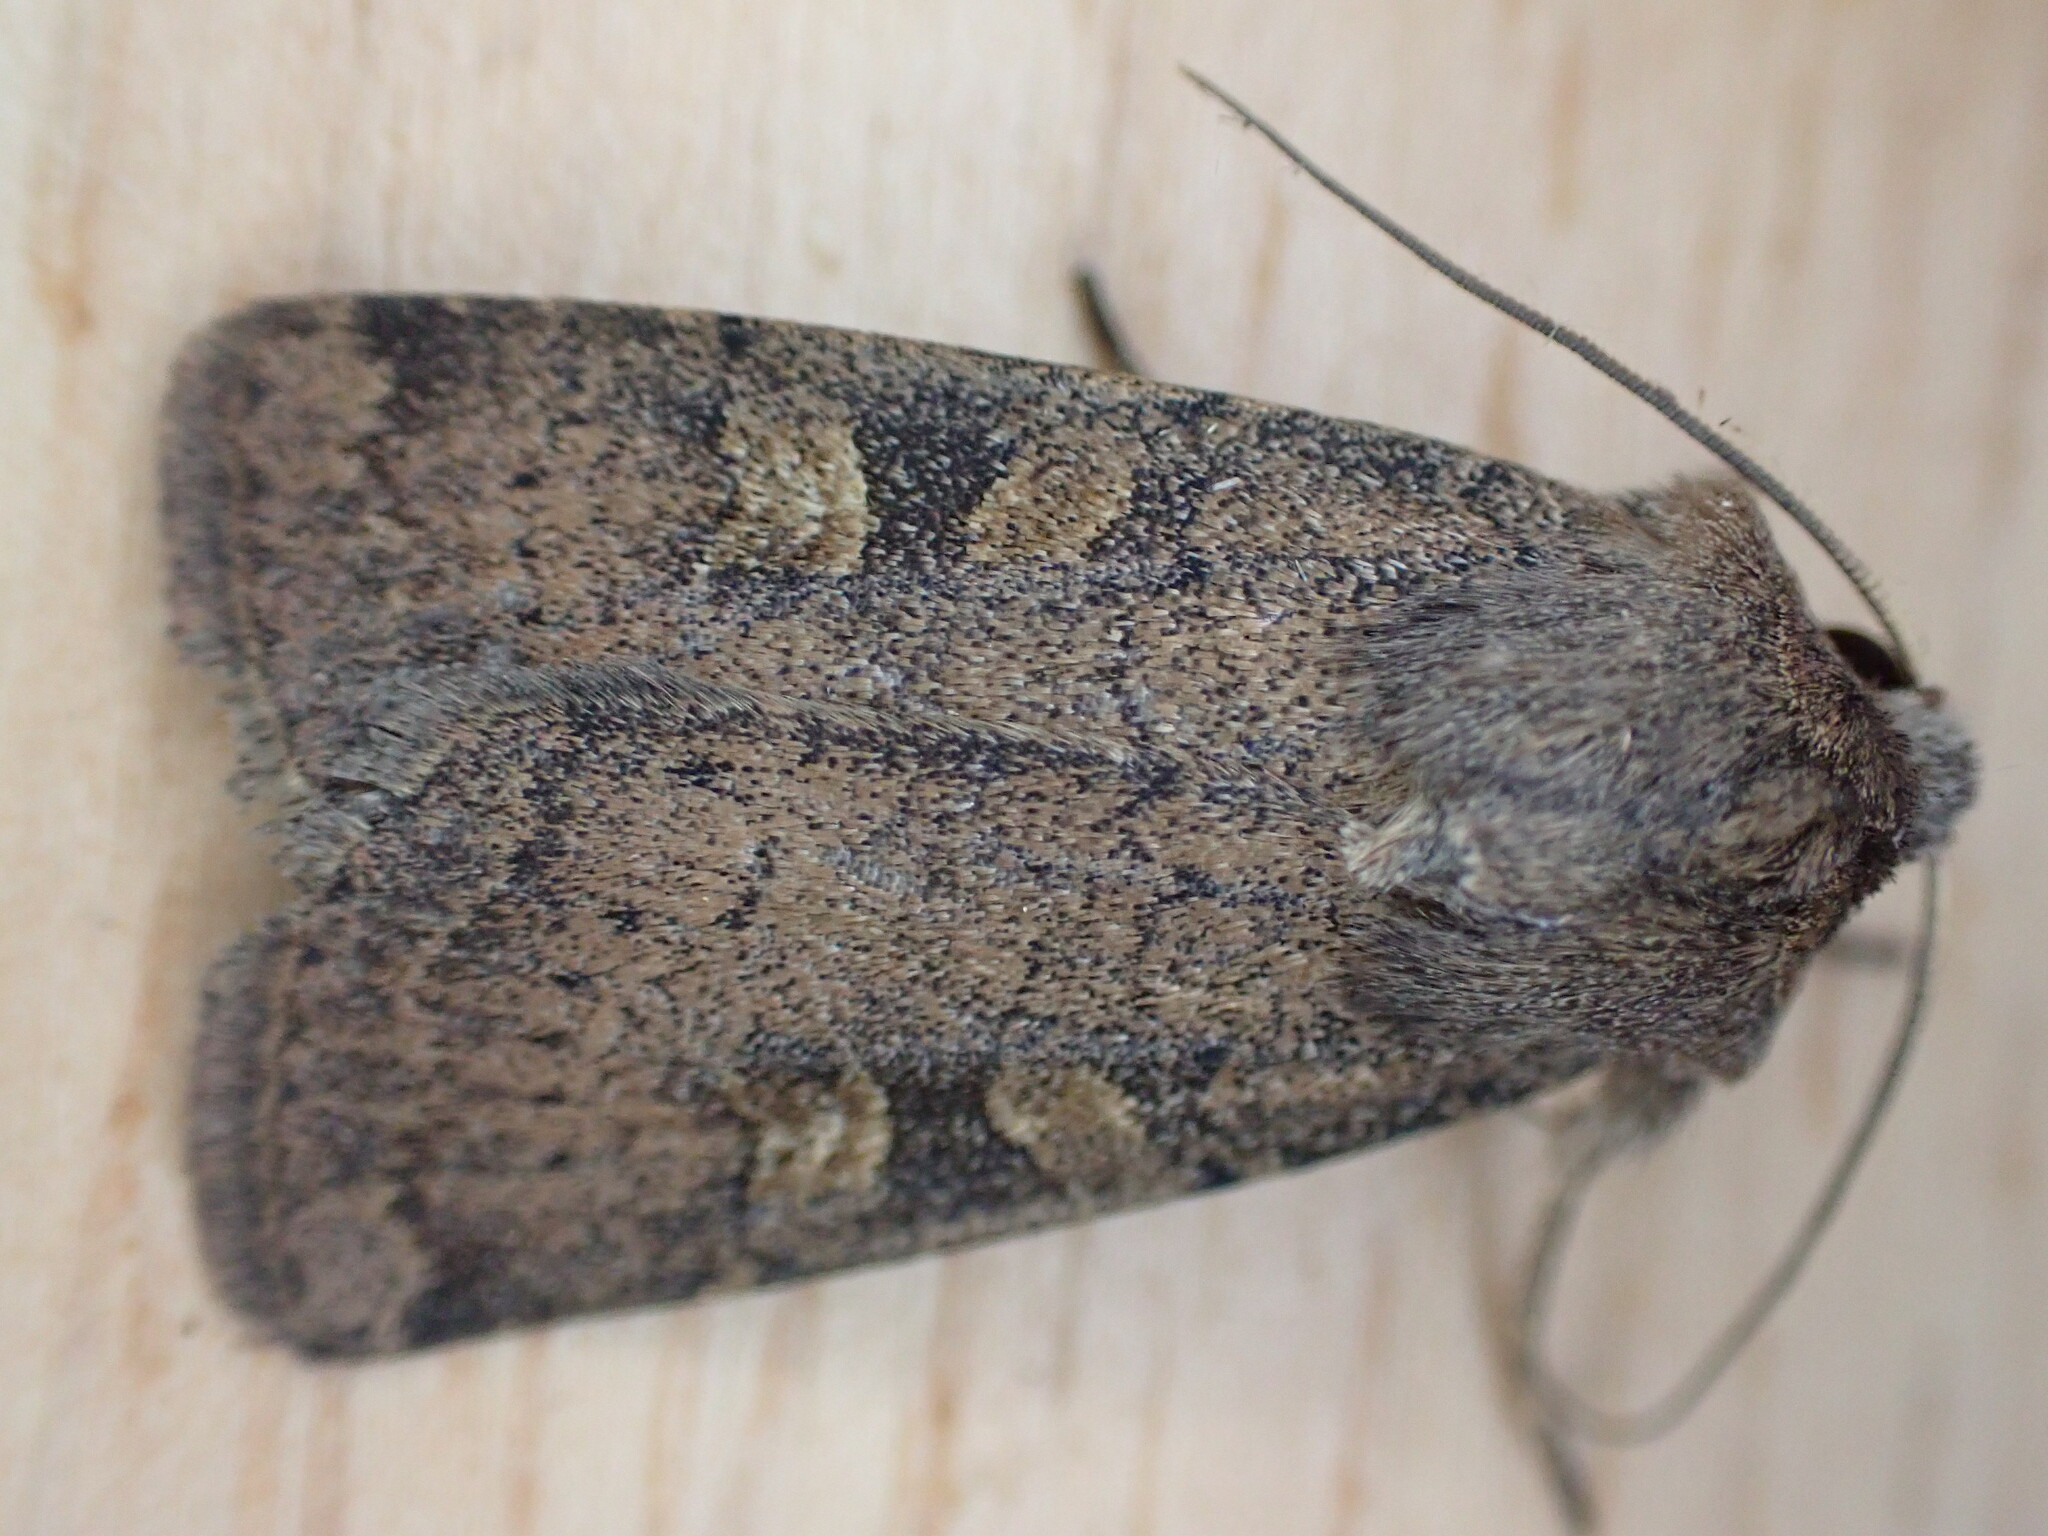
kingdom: Animalia
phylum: Arthropoda
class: Insecta
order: Lepidoptera
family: Noctuidae
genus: Xestia
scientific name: Xestia xanthographa
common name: Square-spot rustic
